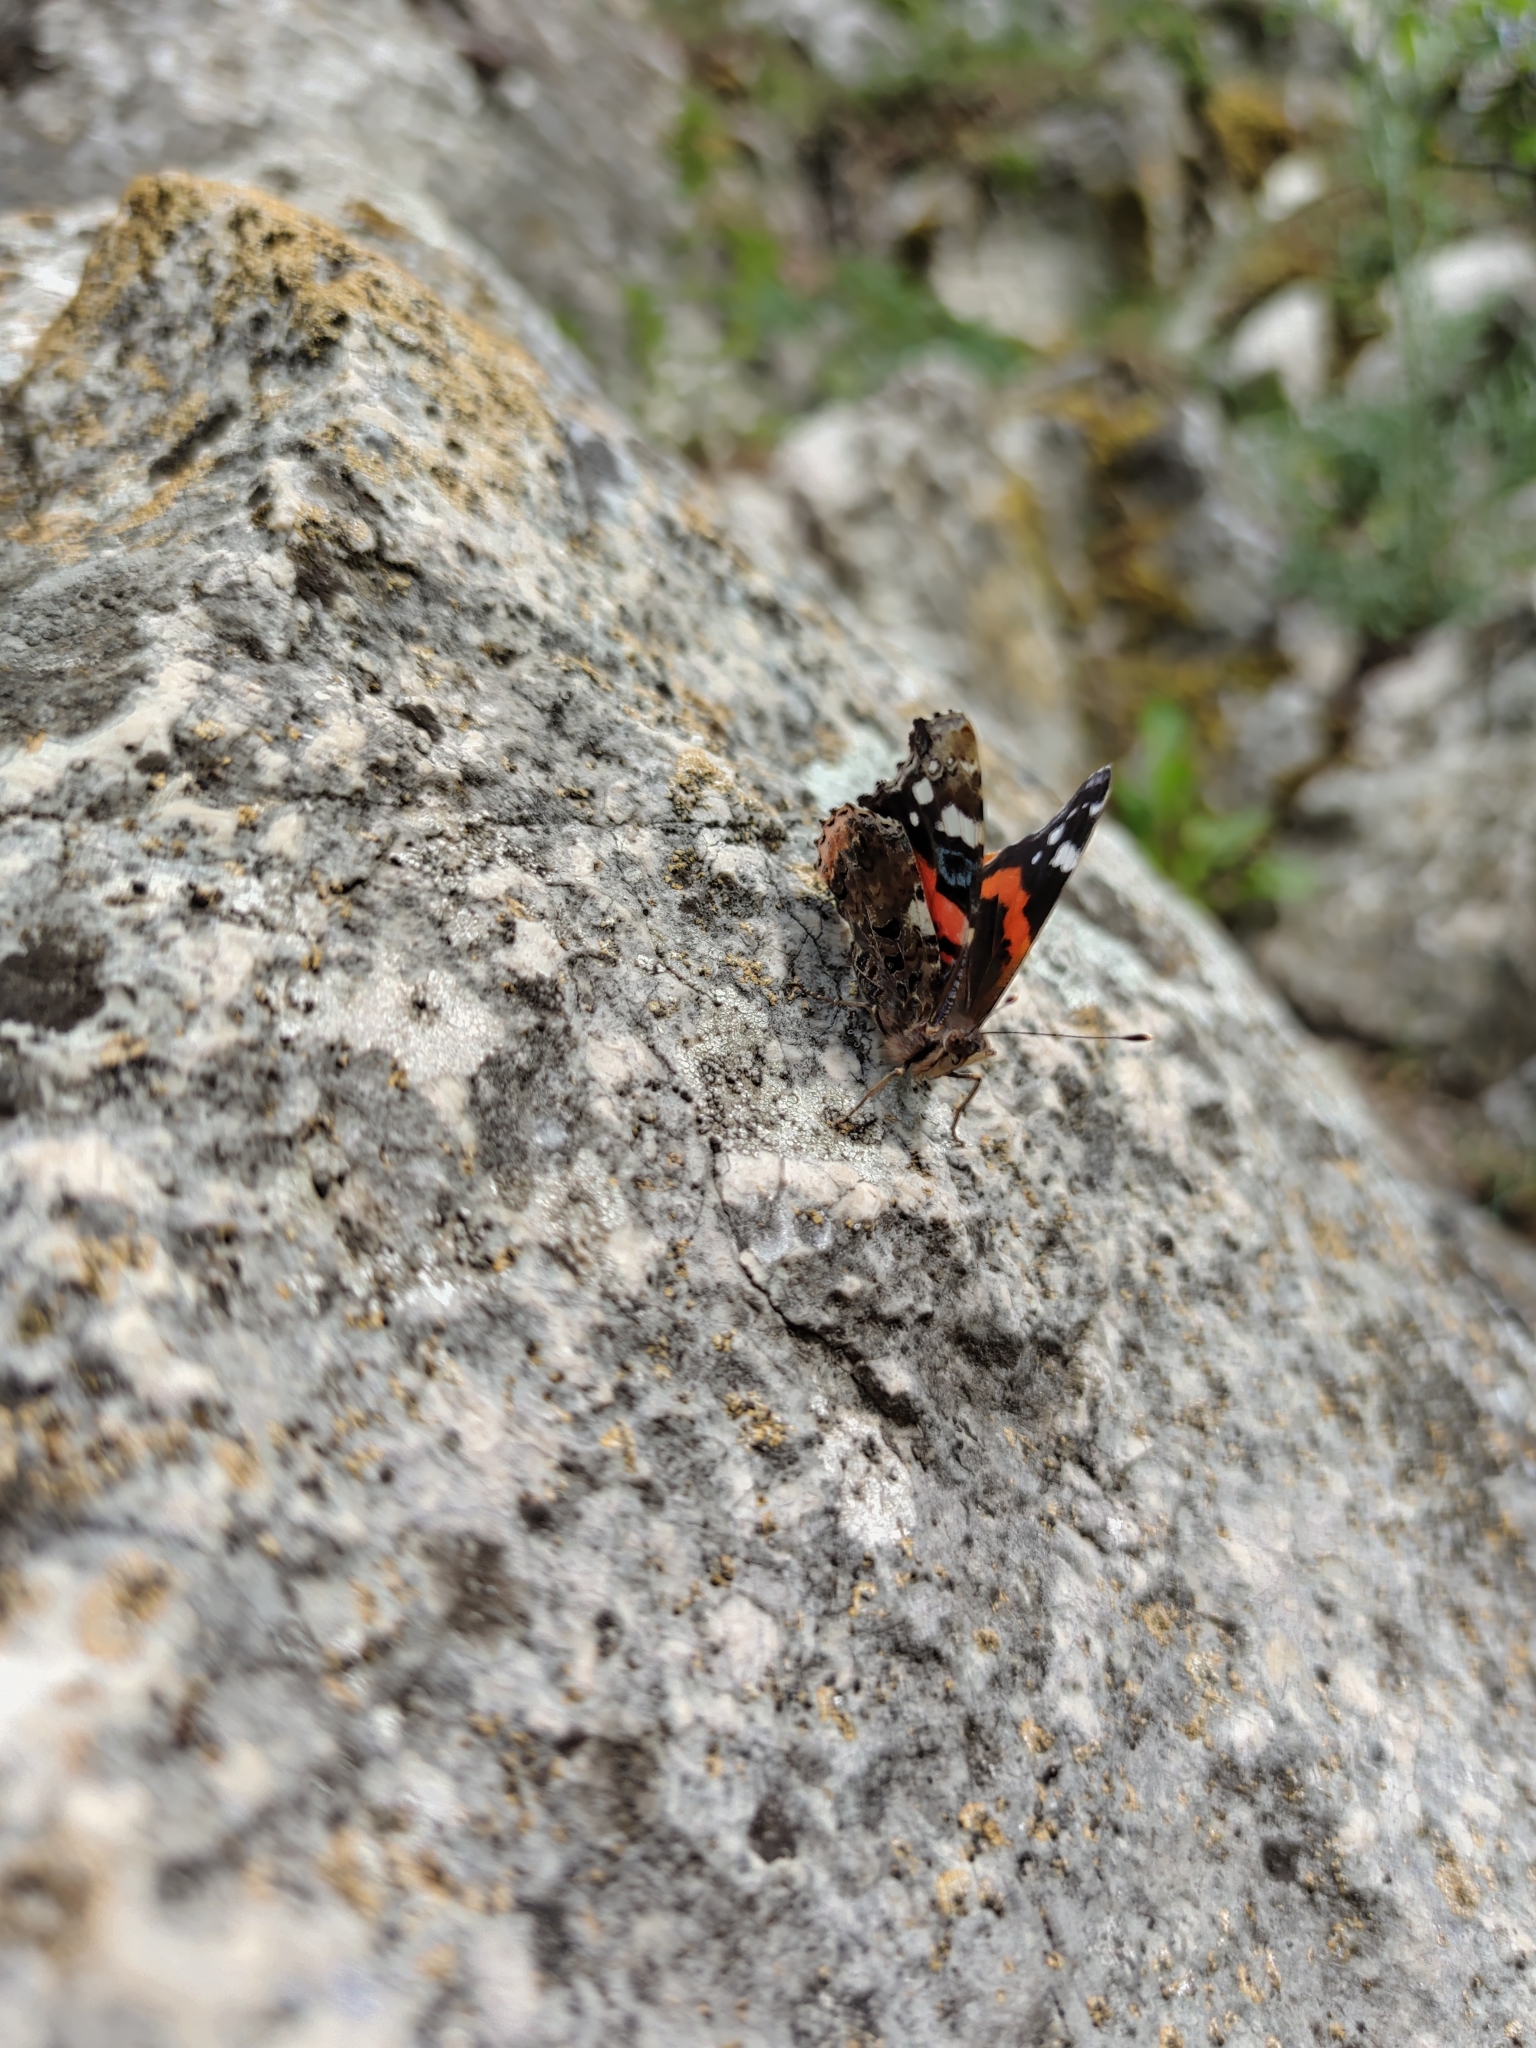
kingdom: Animalia
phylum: Arthropoda
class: Insecta
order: Lepidoptera
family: Nymphalidae
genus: Vanessa
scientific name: Vanessa atalanta
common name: Red admiral
